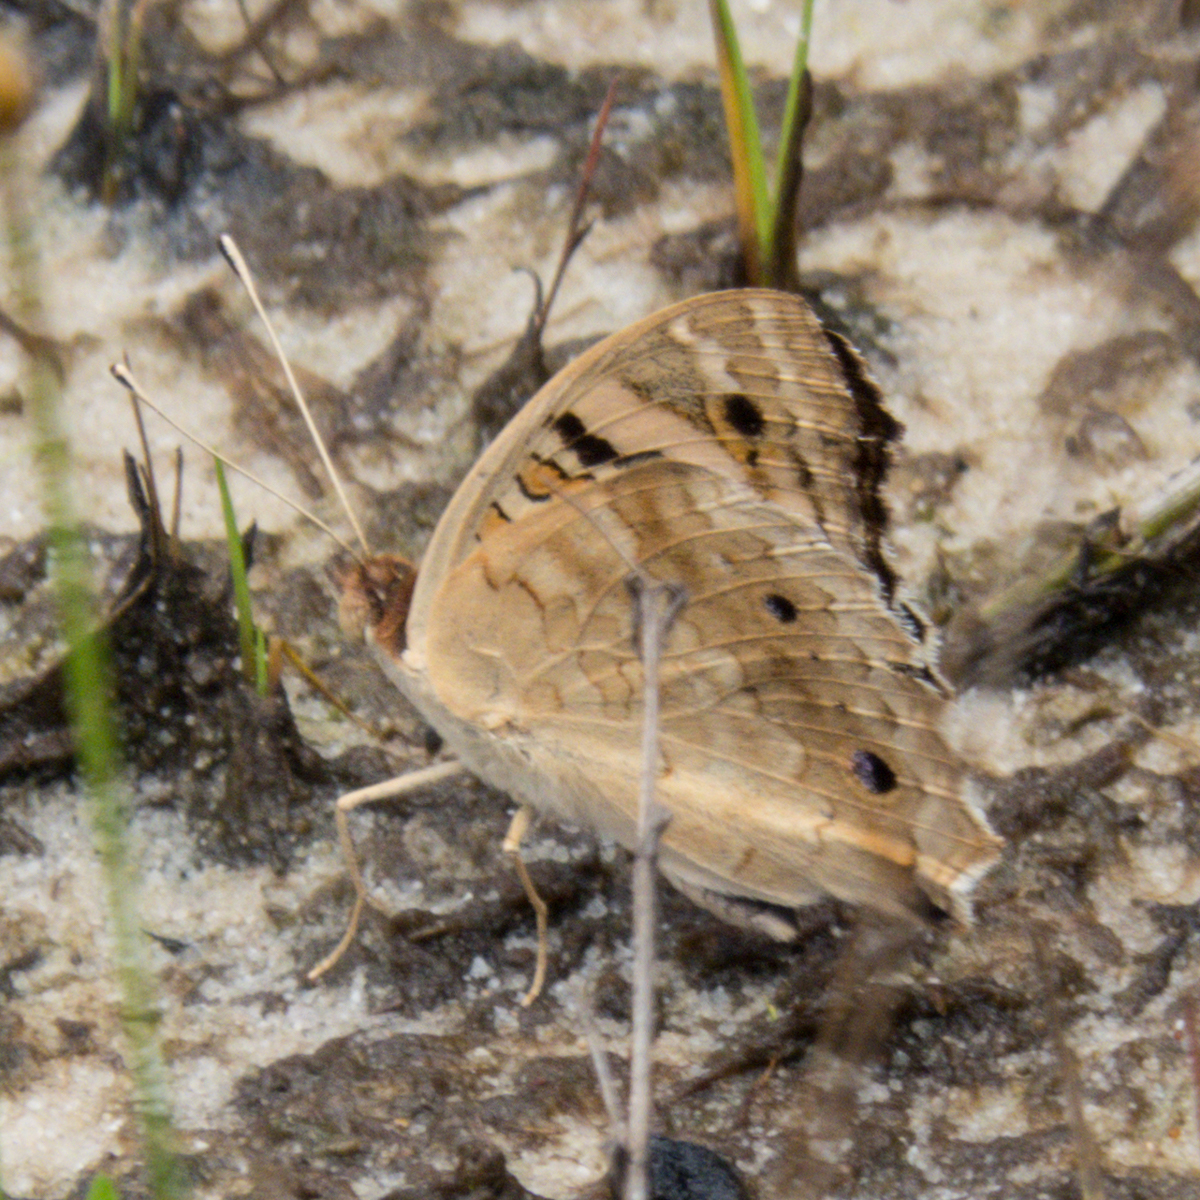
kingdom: Animalia
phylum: Arthropoda
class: Insecta
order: Lepidoptera
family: Nymphalidae
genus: Junonia
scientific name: Junonia orithya
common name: Blue pansy
